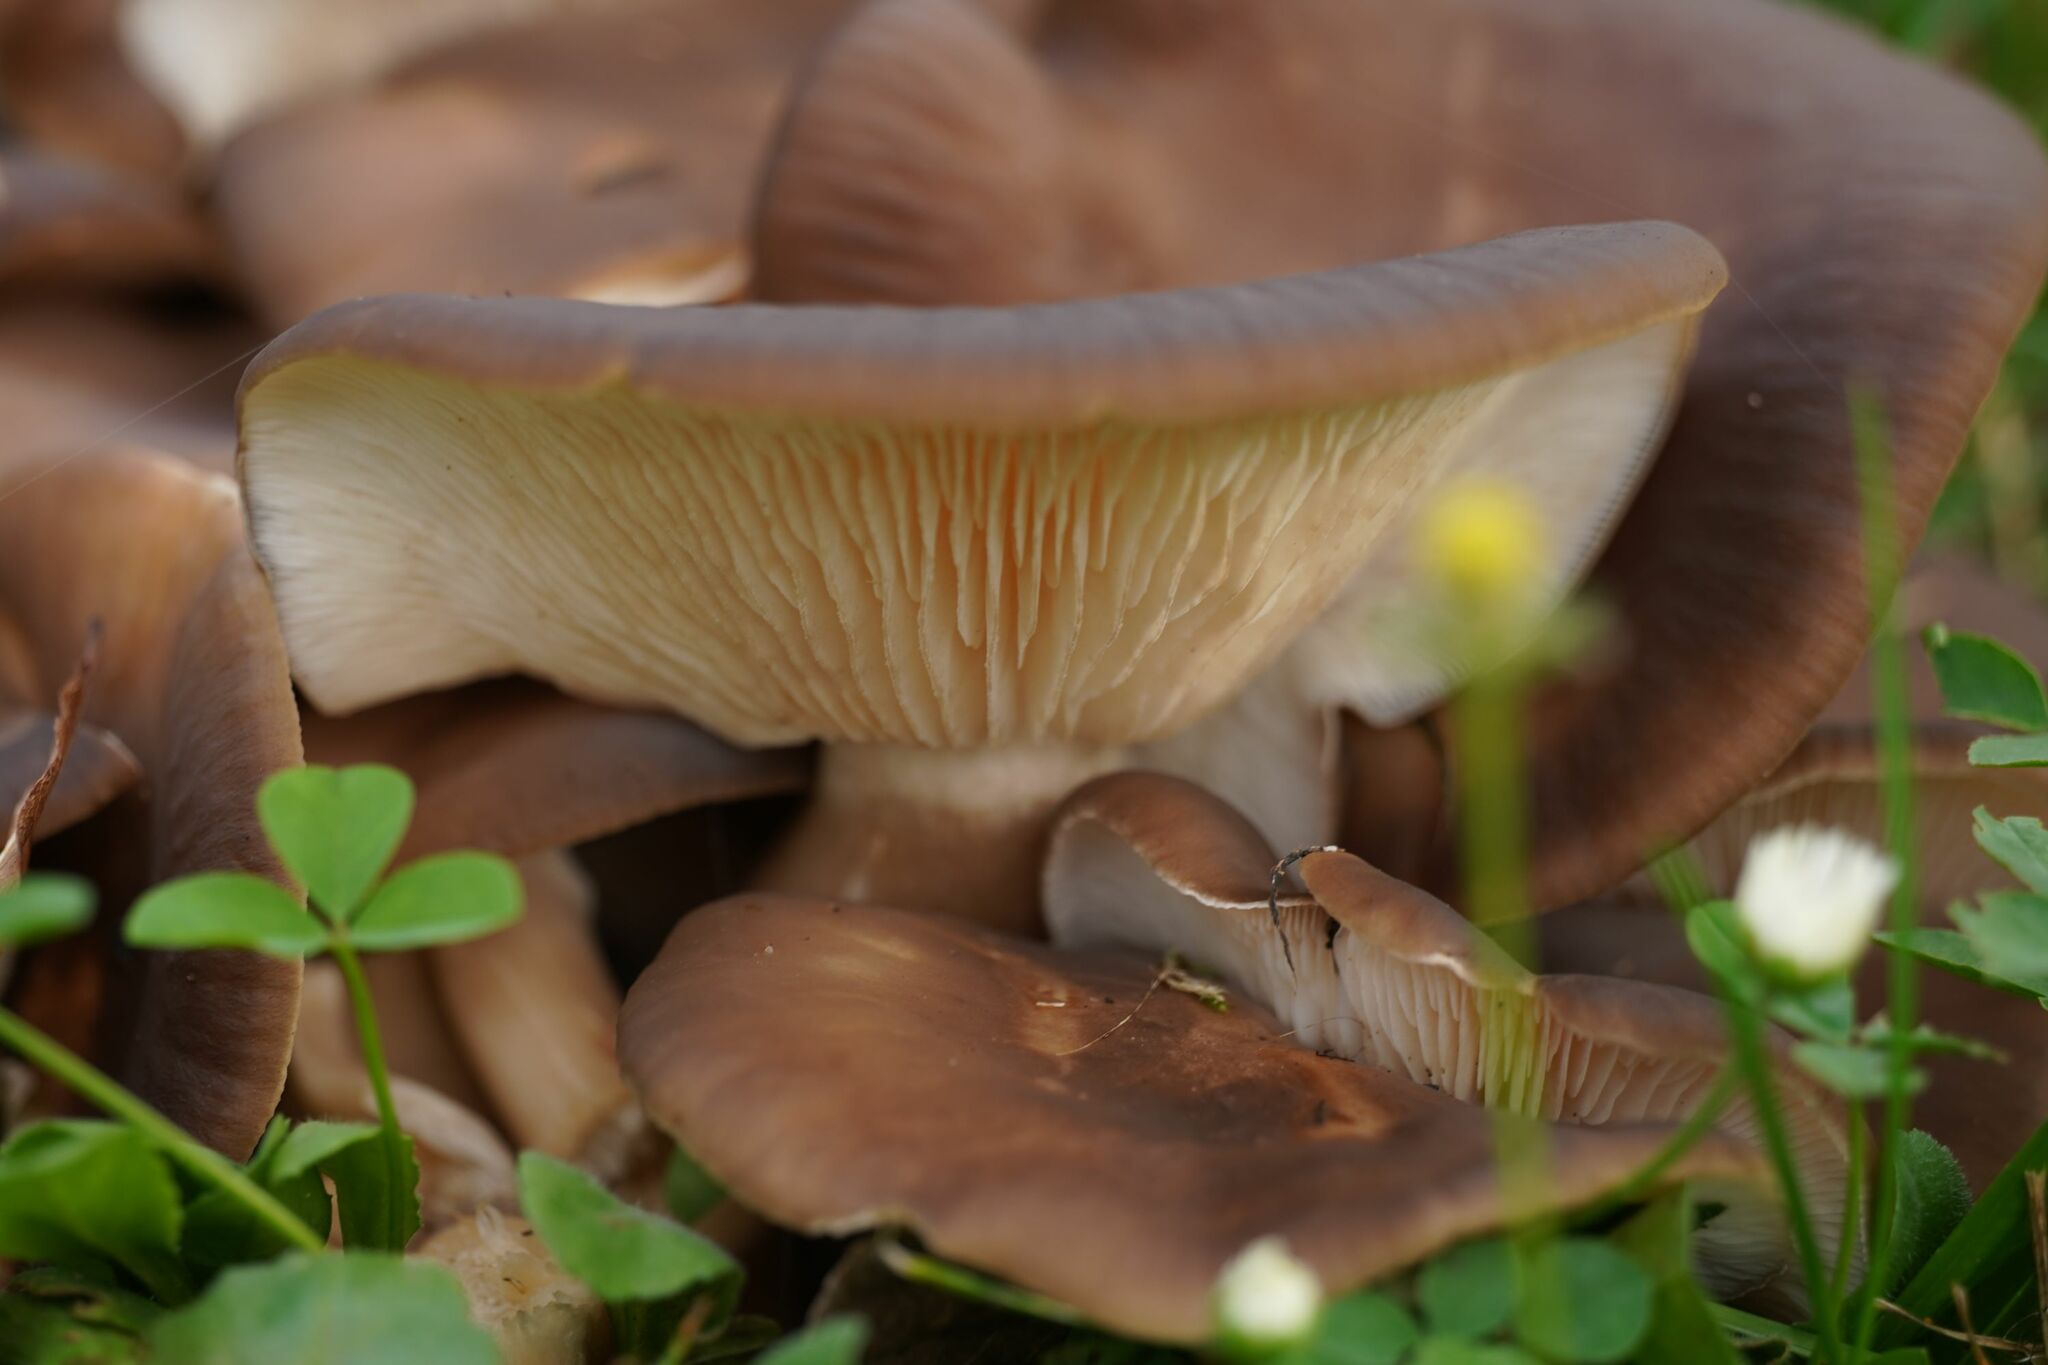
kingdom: Fungi
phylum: Basidiomycota
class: Agaricomycetes
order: Agaricales
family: Lyophyllaceae
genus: Lyophyllum
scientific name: Lyophyllum decastes
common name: Clustered domecap
